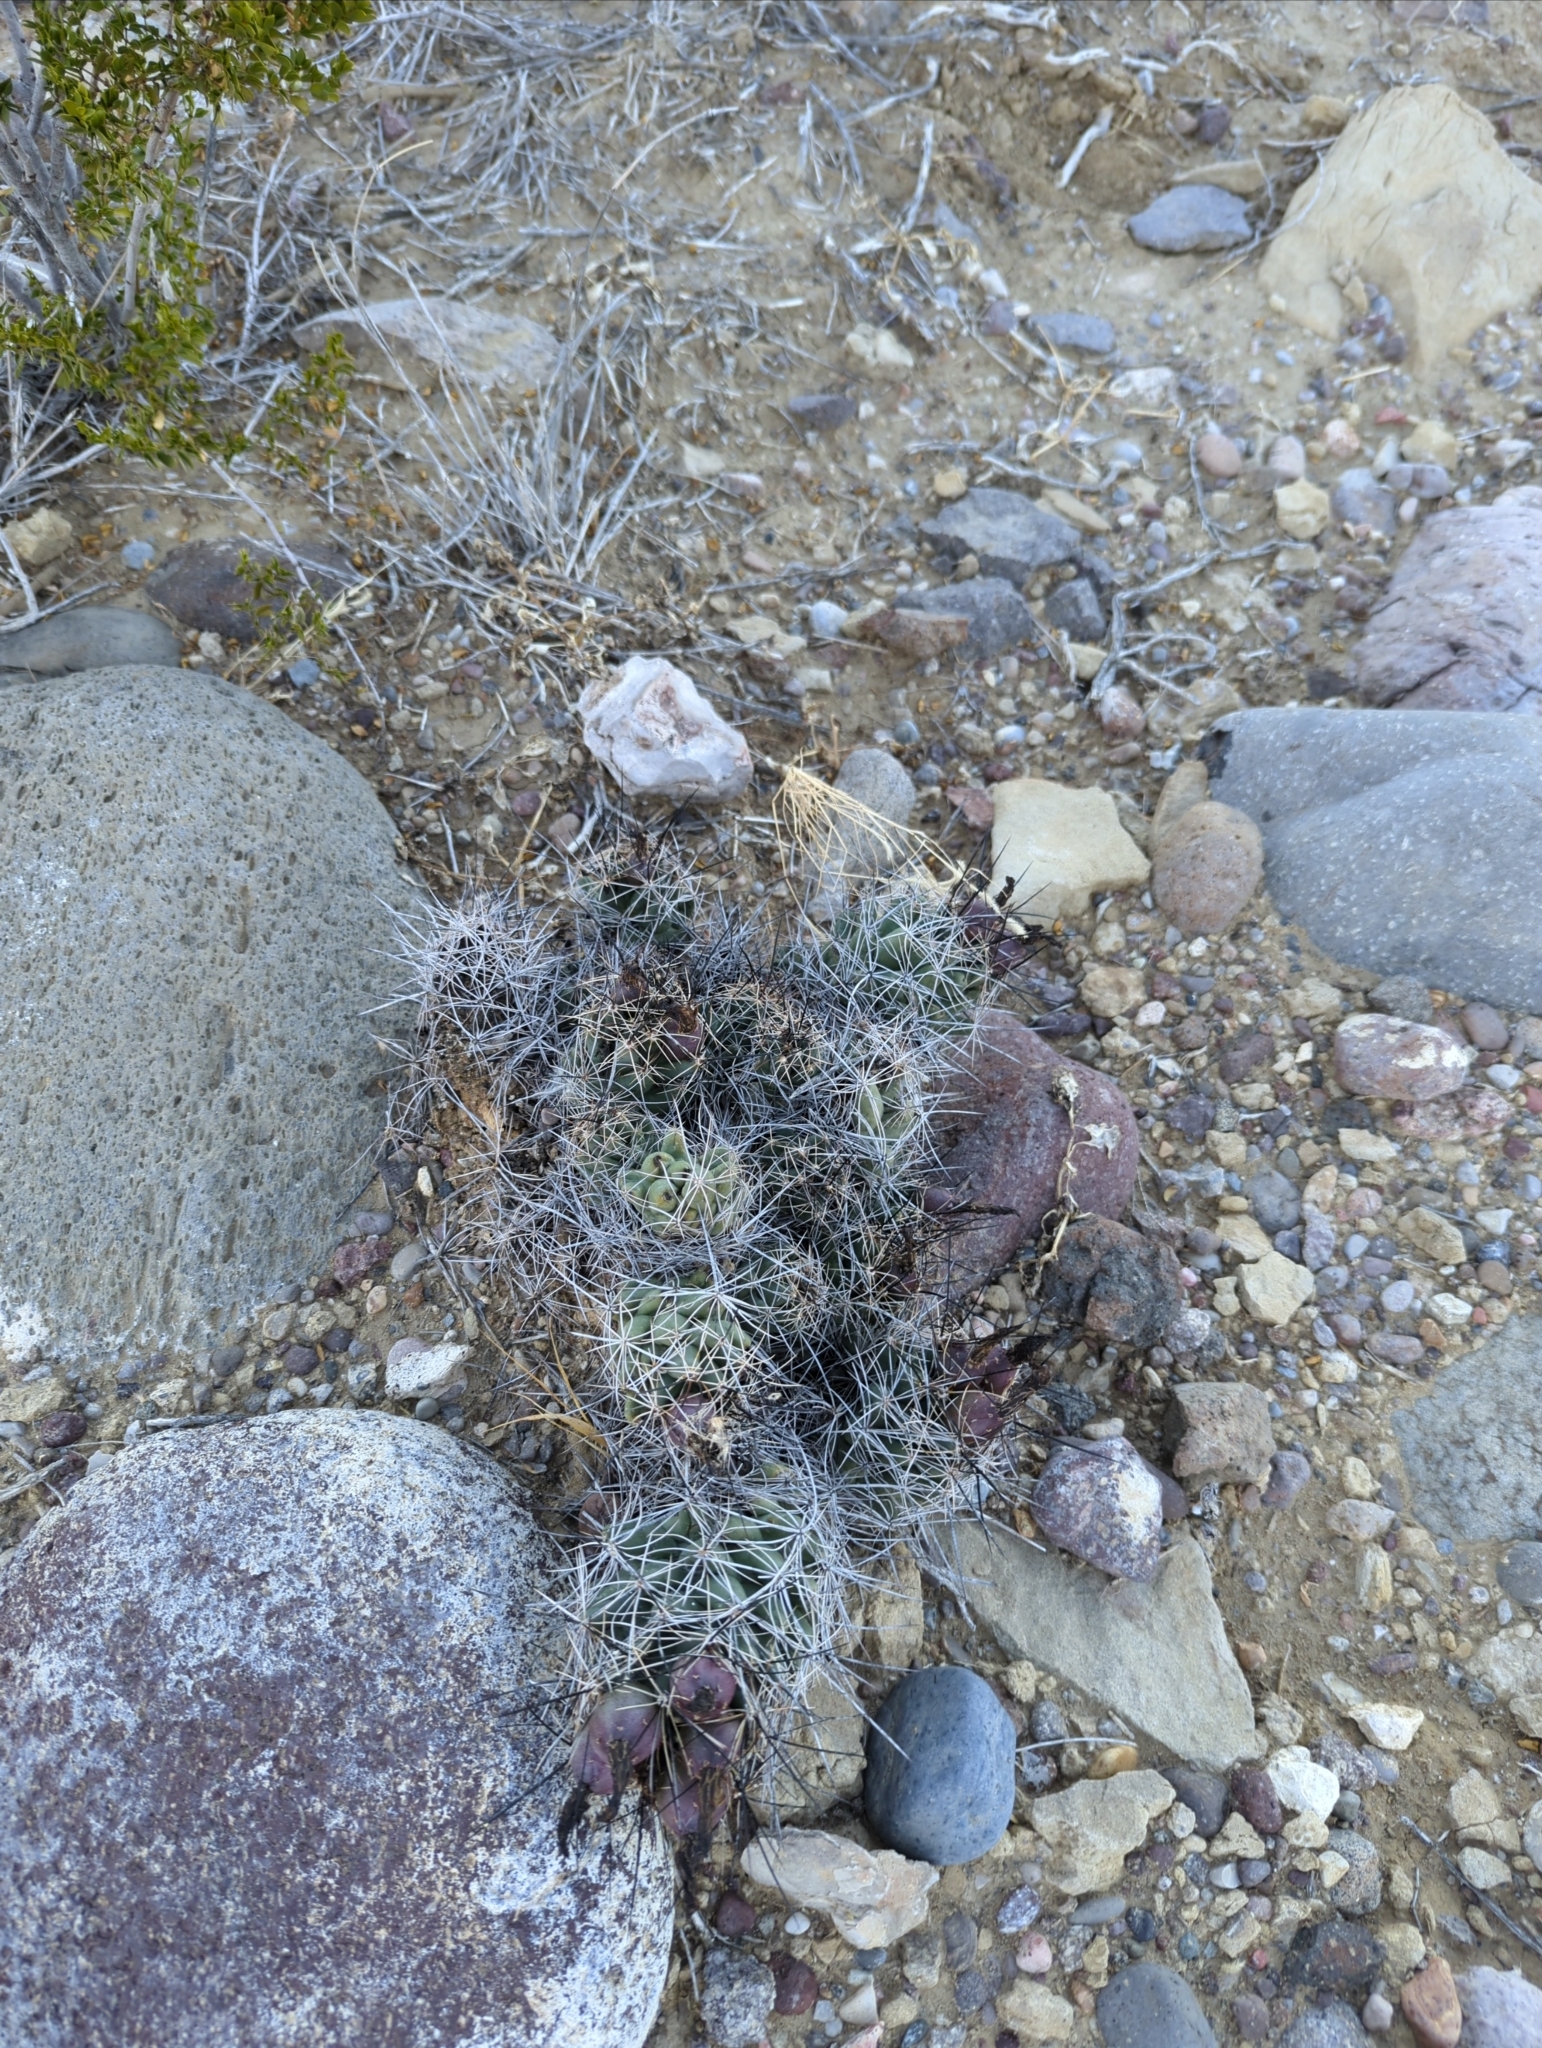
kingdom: Plantae
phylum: Tracheophyta
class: Magnoliopsida
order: Caryophyllales
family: Cactaceae
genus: Coryphantha
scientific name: Coryphantha macromeris
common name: Nipple beehive cactus
